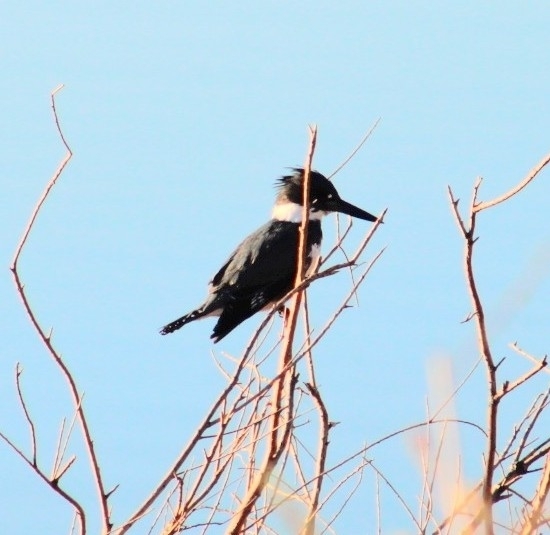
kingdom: Animalia
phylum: Chordata
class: Aves
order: Coraciiformes
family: Alcedinidae
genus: Megaceryle
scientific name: Megaceryle alcyon
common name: Belted kingfisher
